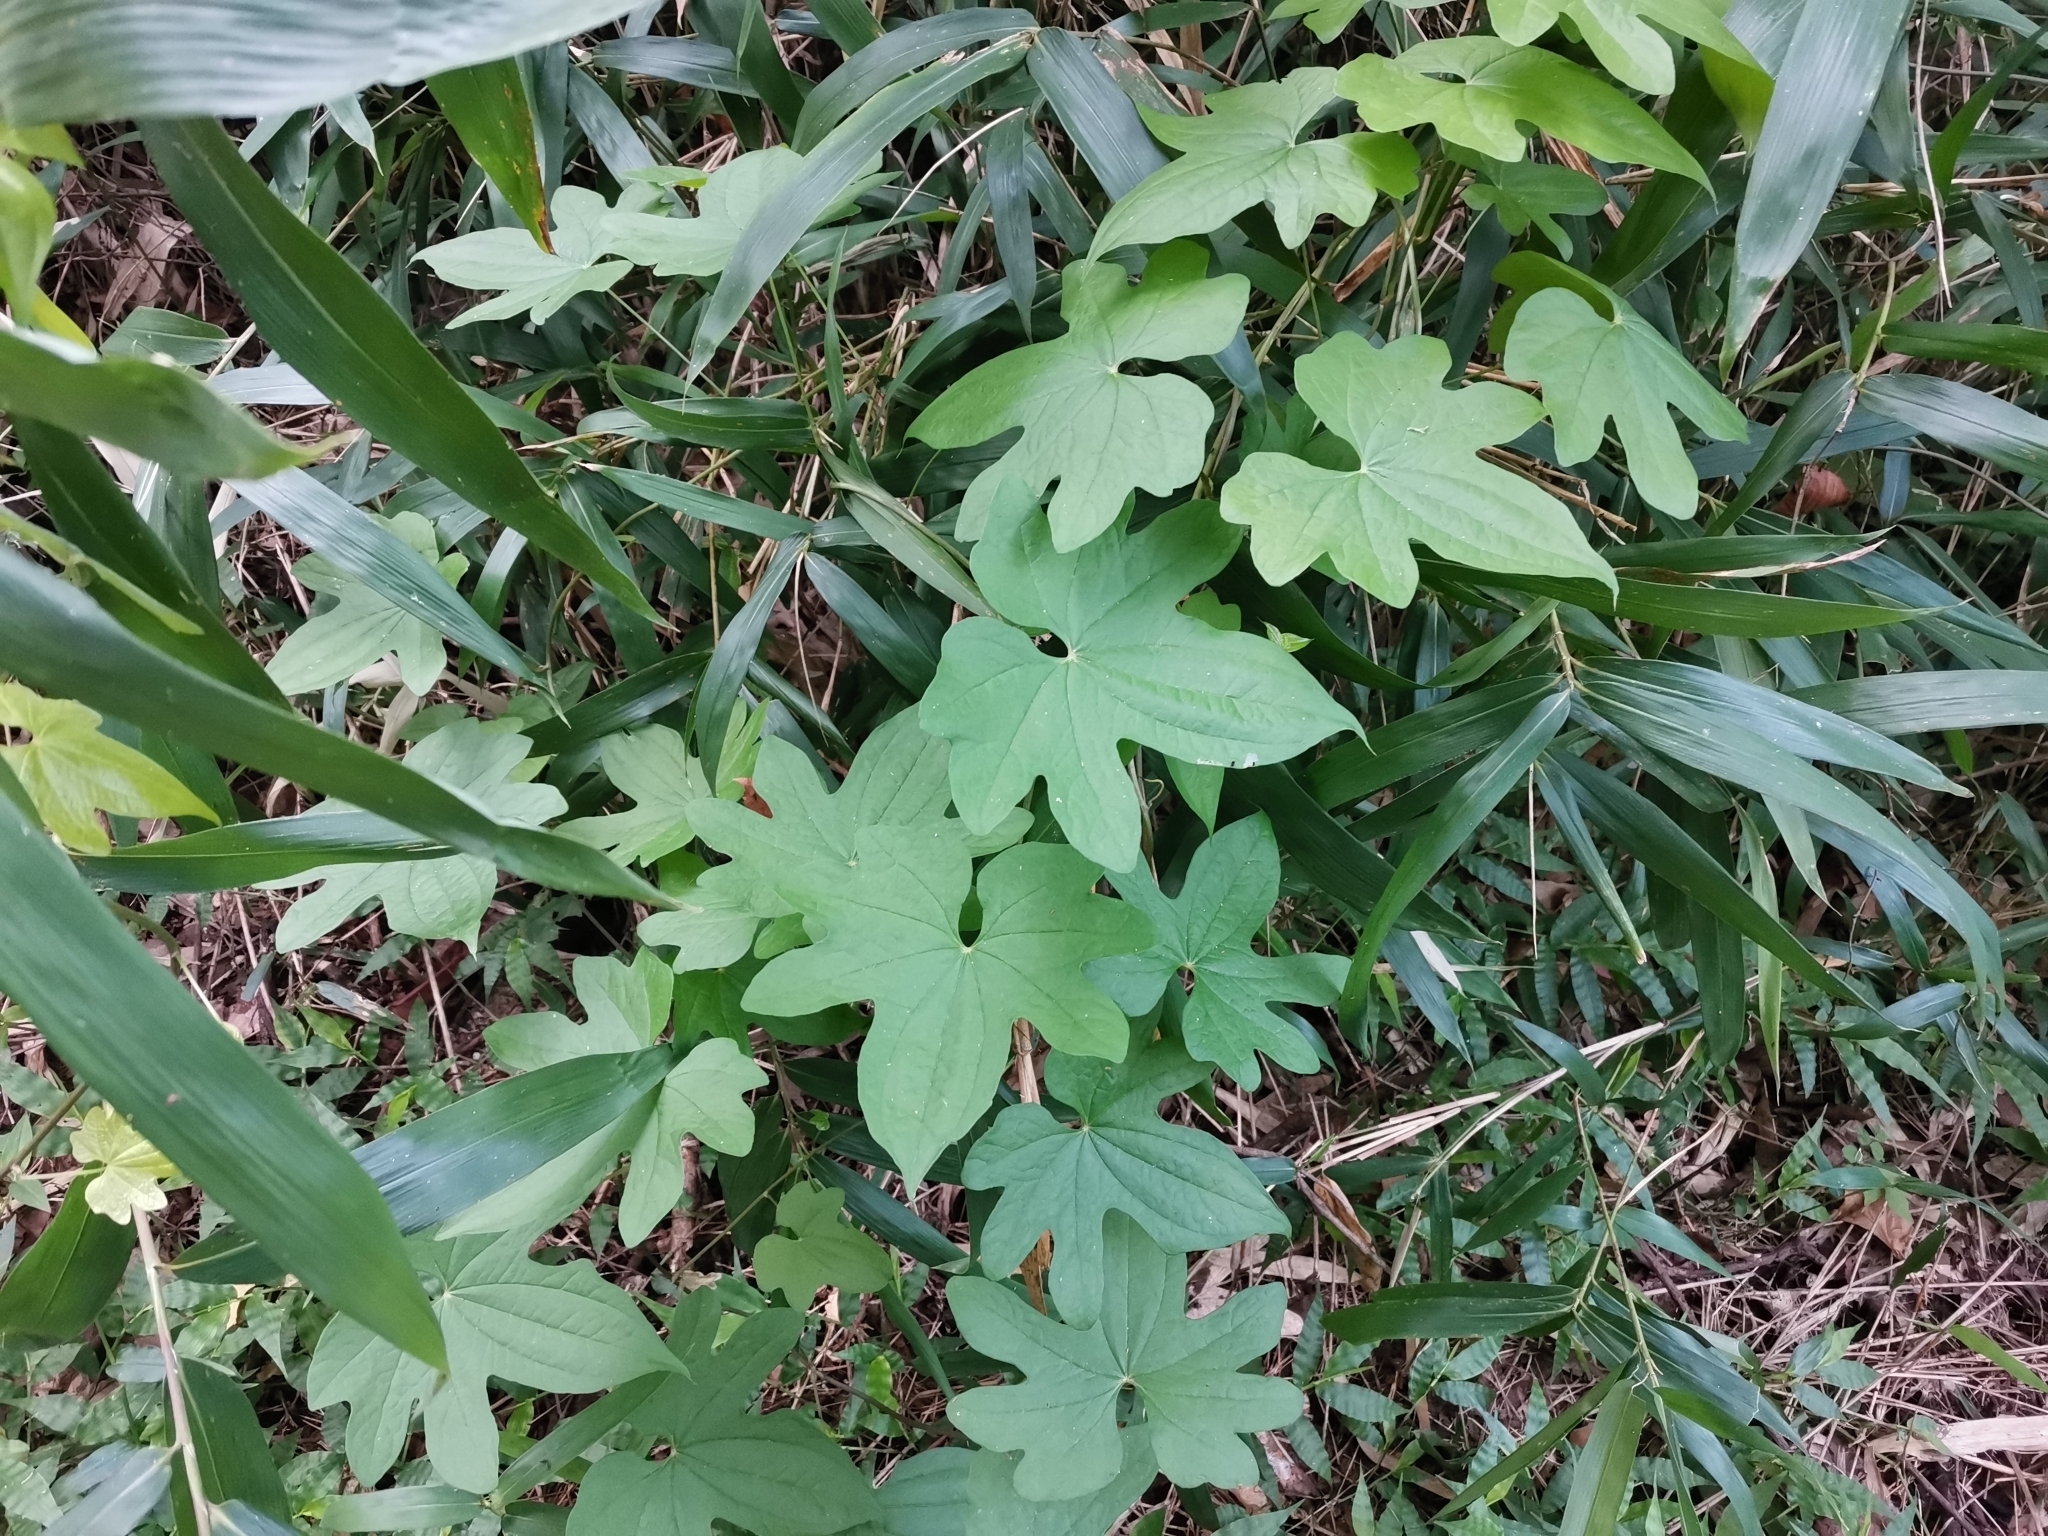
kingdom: Plantae
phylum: Tracheophyta
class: Liliopsida
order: Dioscoreales
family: Dioscoreaceae
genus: Dioscorea
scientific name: Dioscorea quinquelobata
